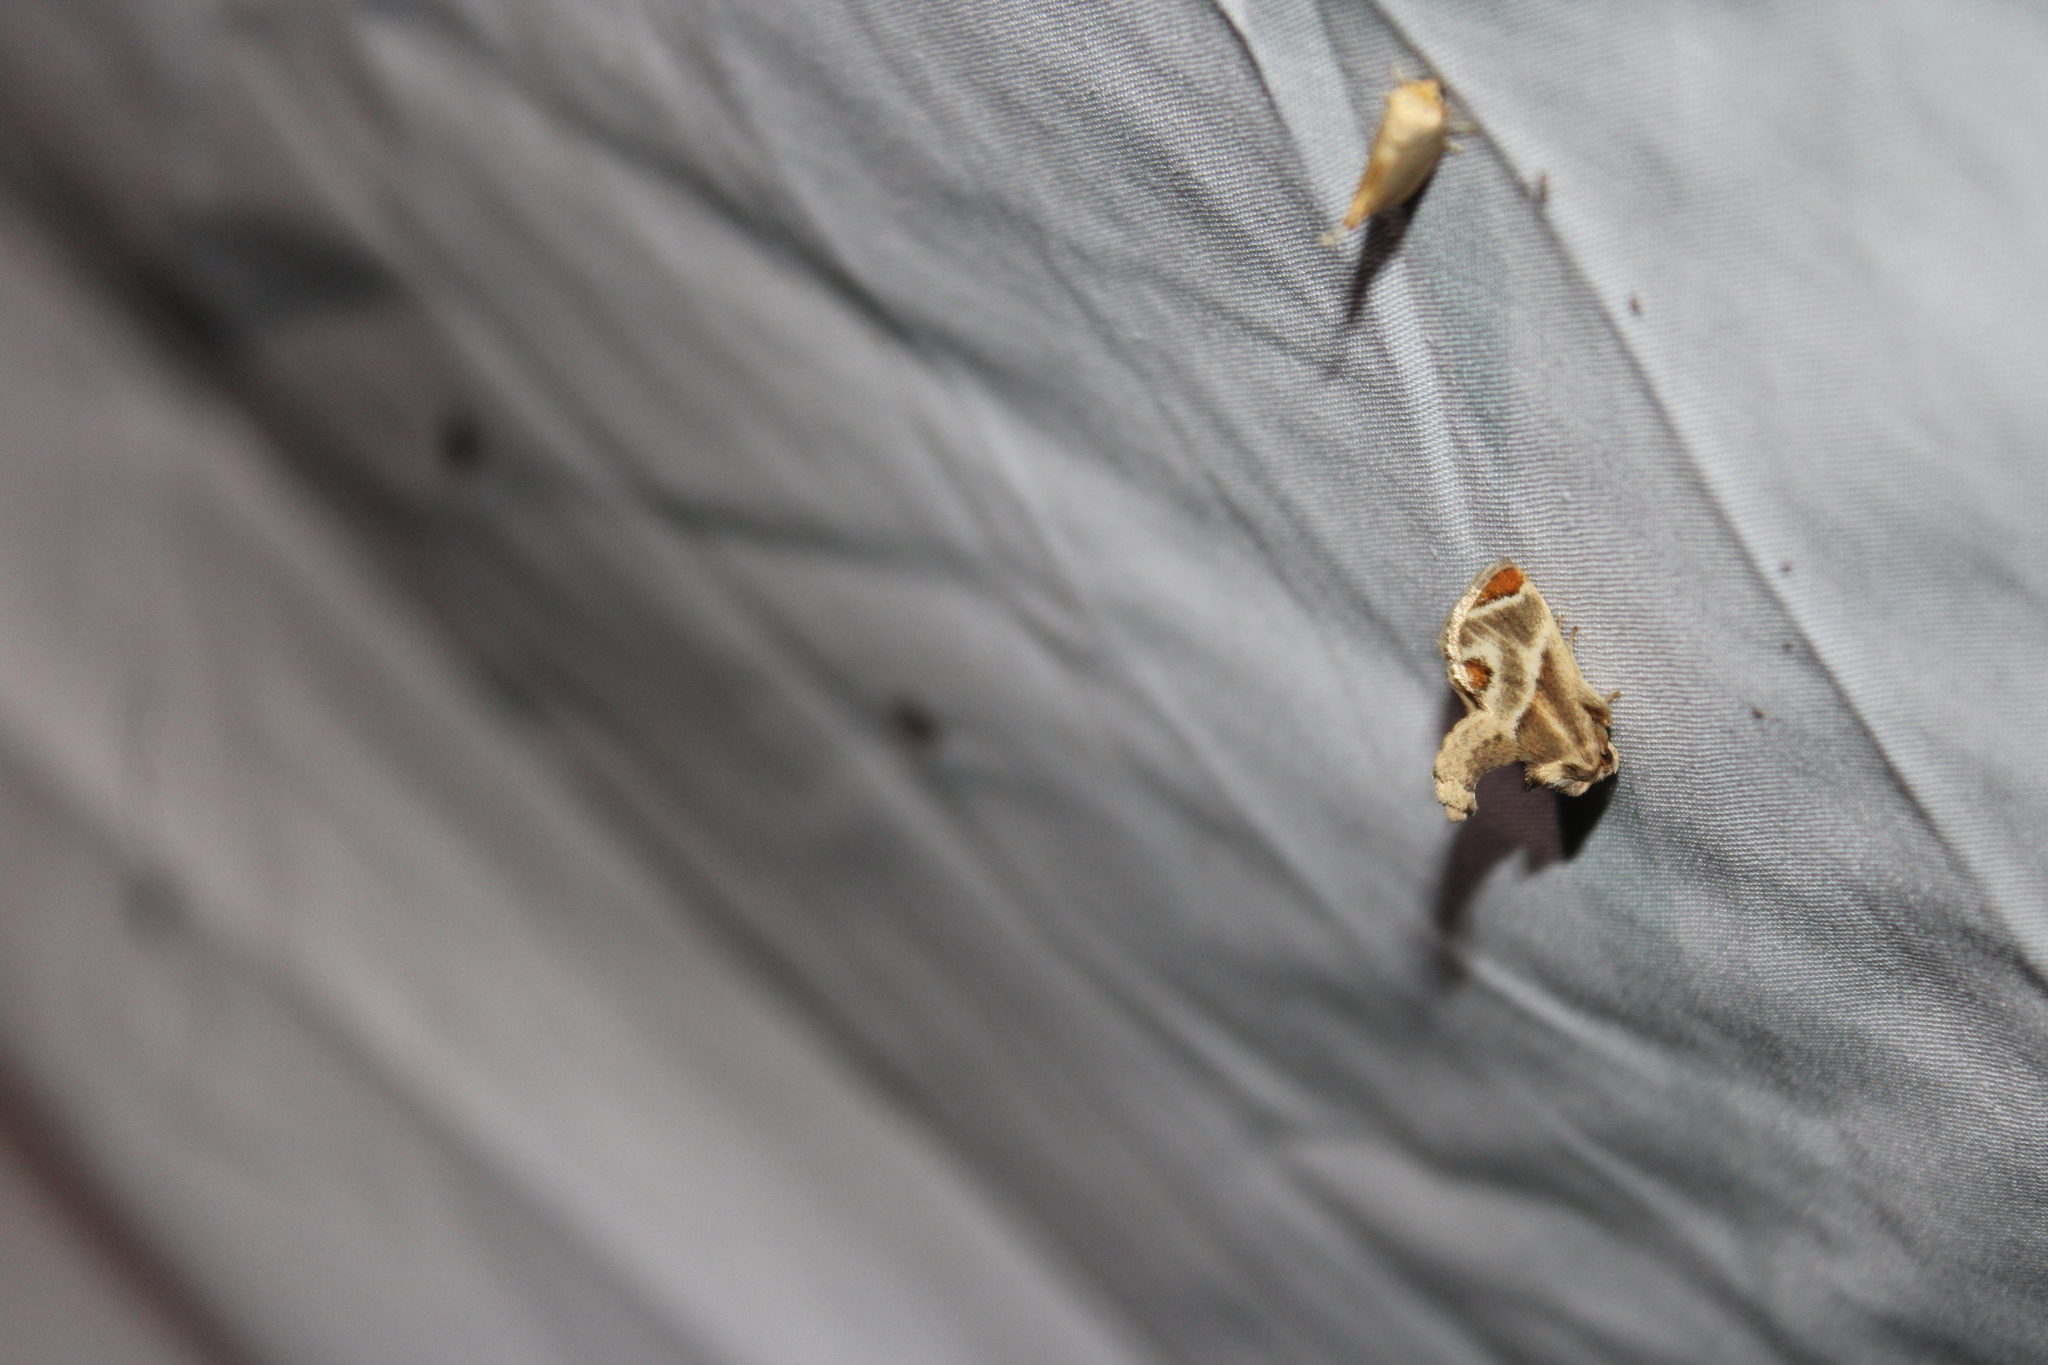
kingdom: Animalia
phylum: Arthropoda
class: Insecta
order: Lepidoptera
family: Limacodidae
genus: Apoda
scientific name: Apoda biguttata
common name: Shagreened slug moth
